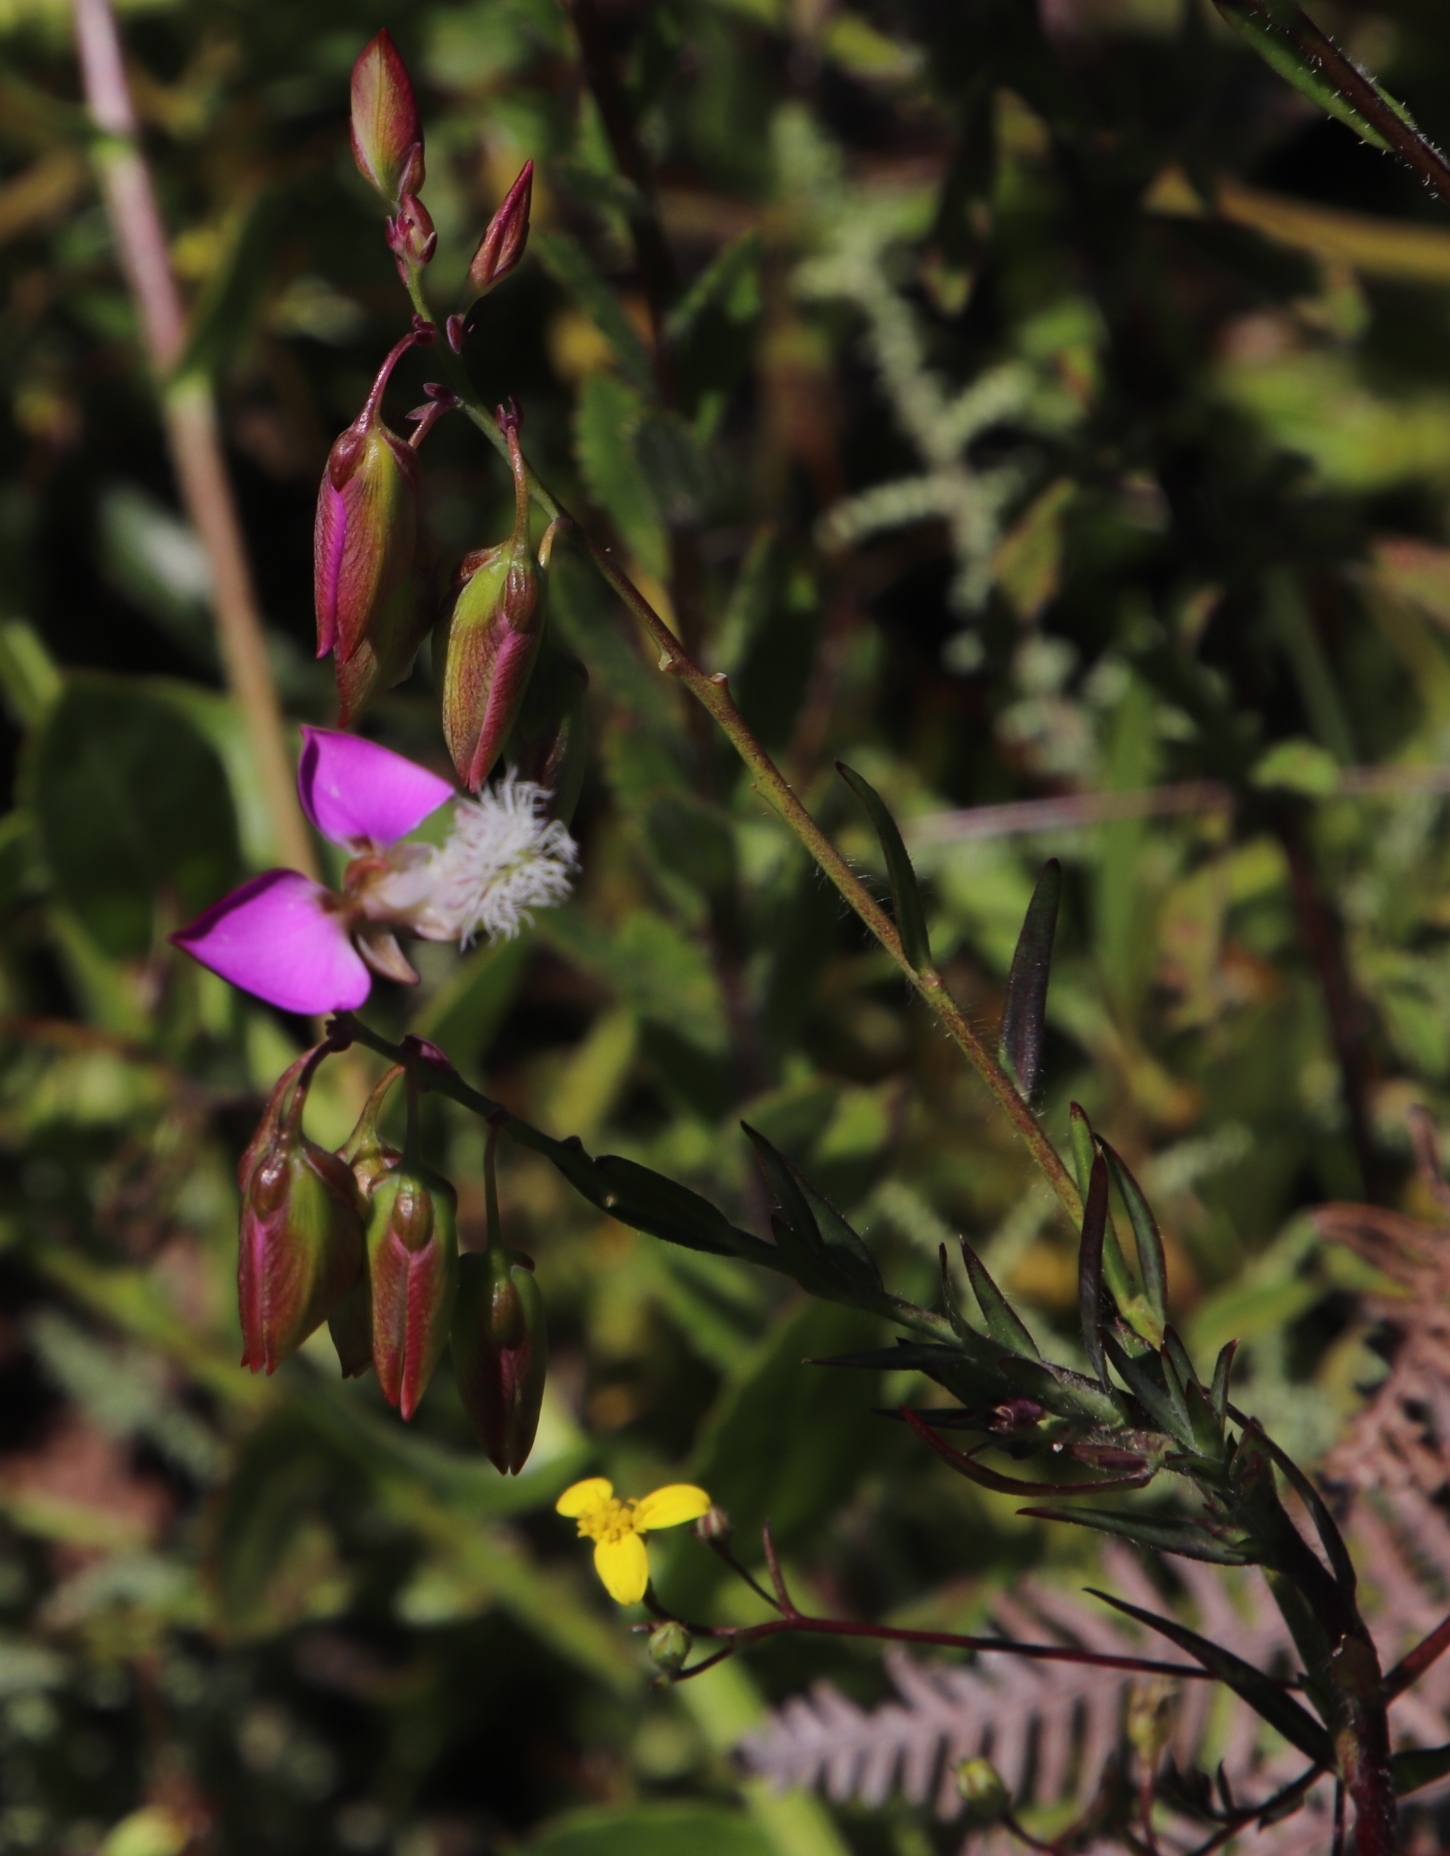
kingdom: Plantae
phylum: Tracheophyta
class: Magnoliopsida
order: Fabales
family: Polygalaceae
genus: Polygala
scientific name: Polygala bracteolata
